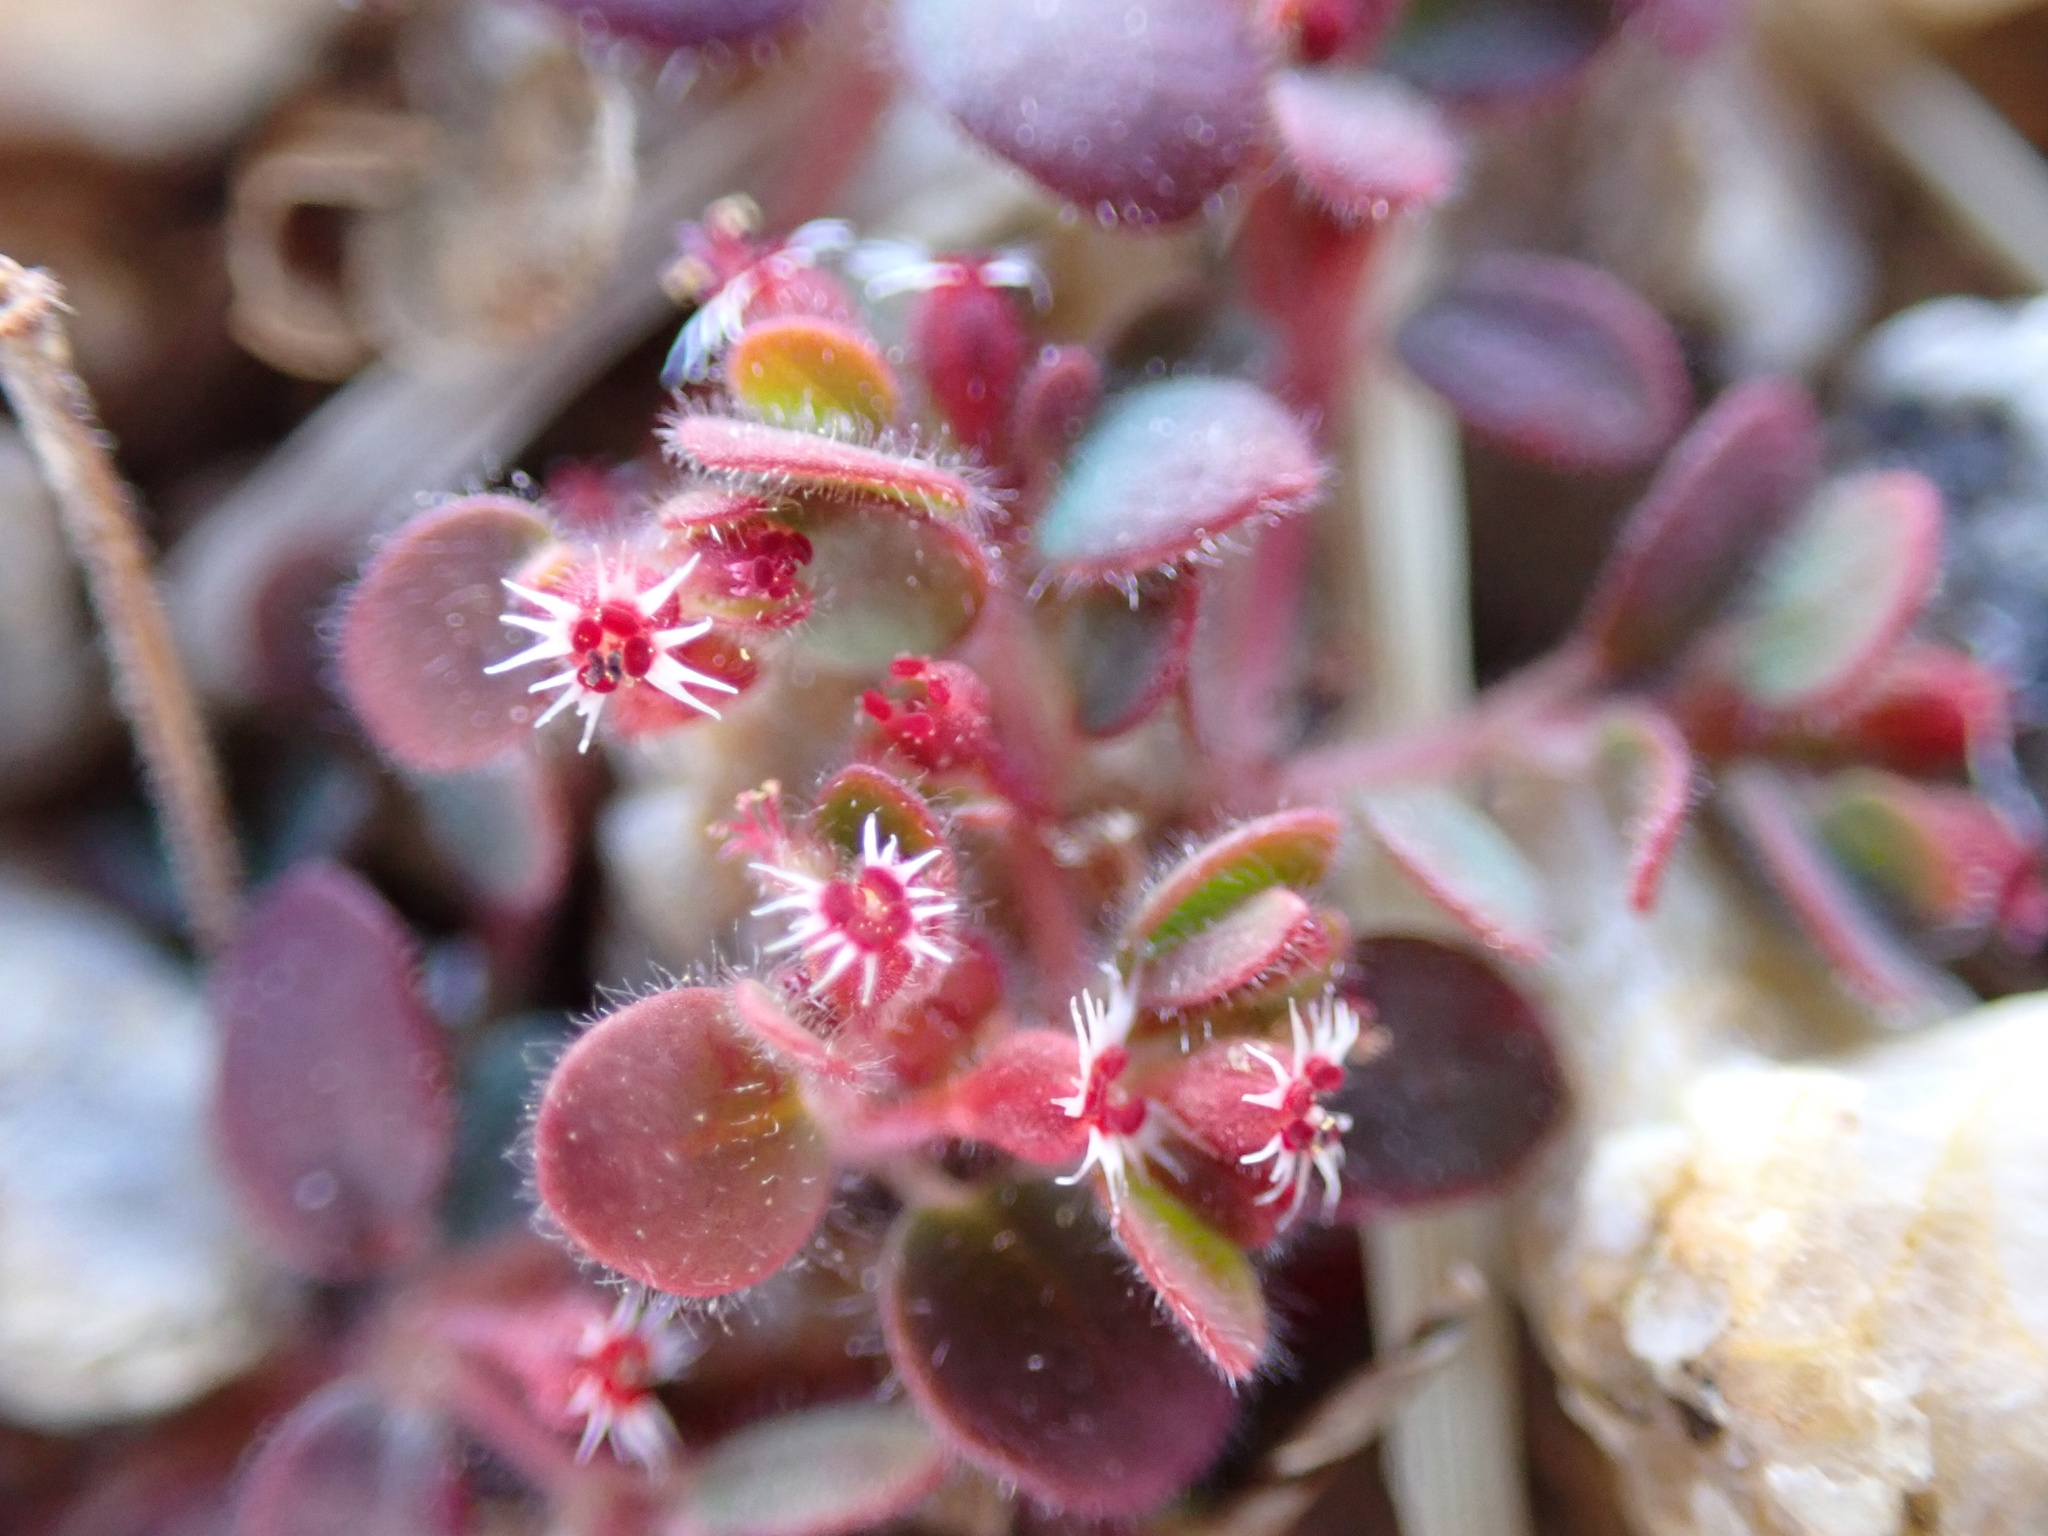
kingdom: Plantae
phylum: Tracheophyta
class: Magnoliopsida
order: Malpighiales
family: Euphorbiaceae
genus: Euphorbia
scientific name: Euphorbia setiloba
